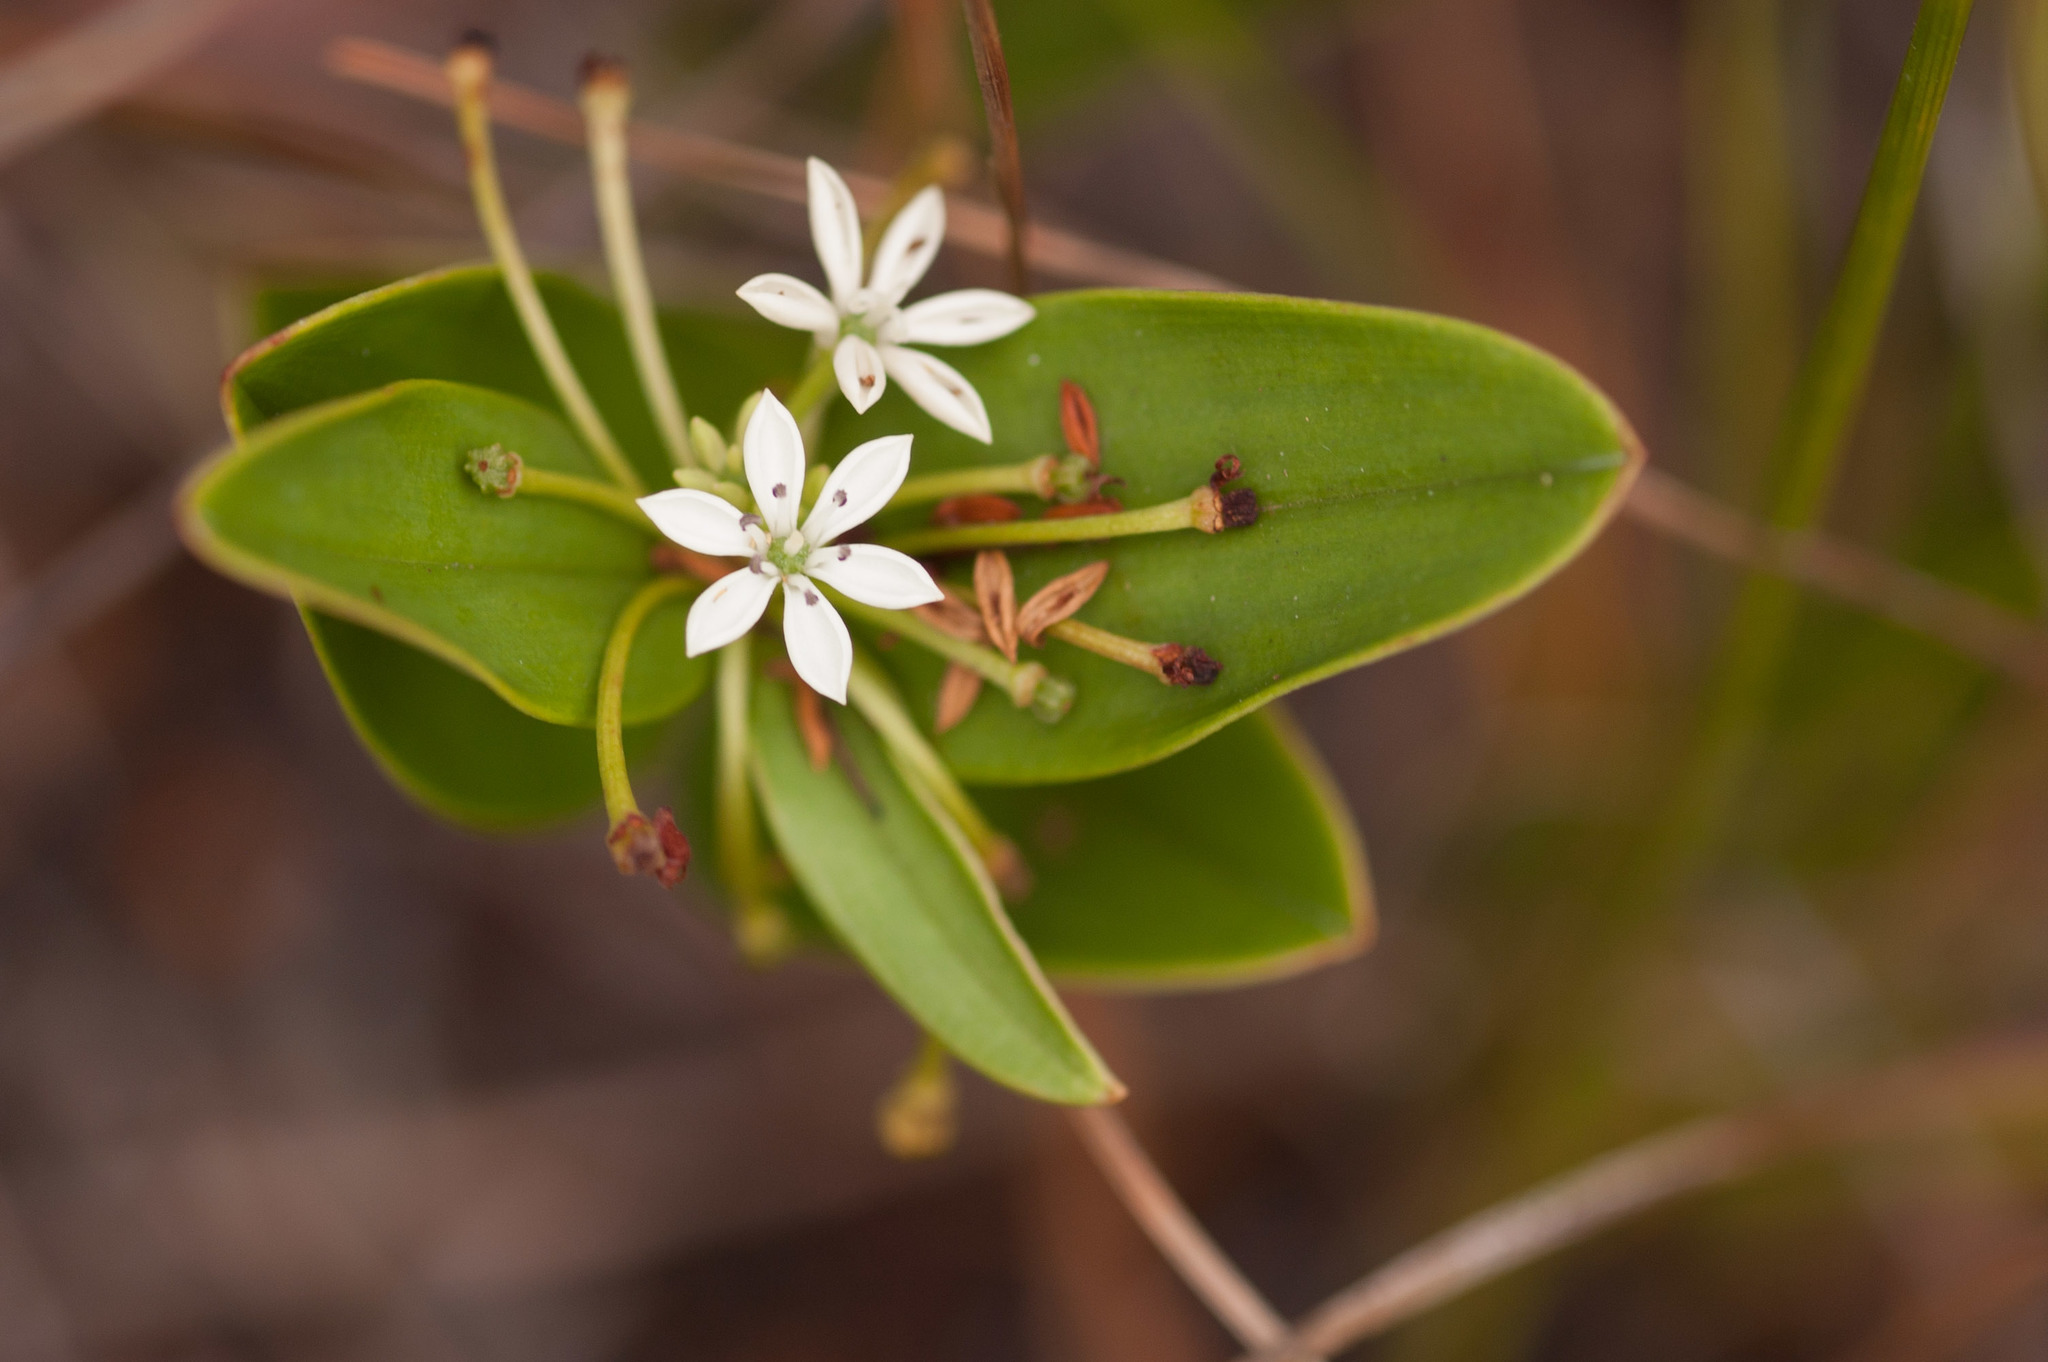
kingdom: Plantae
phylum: Tracheophyta
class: Liliopsida
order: Liliales
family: Colchicaceae
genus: Schelhammera
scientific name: Schelhammera multiflora
